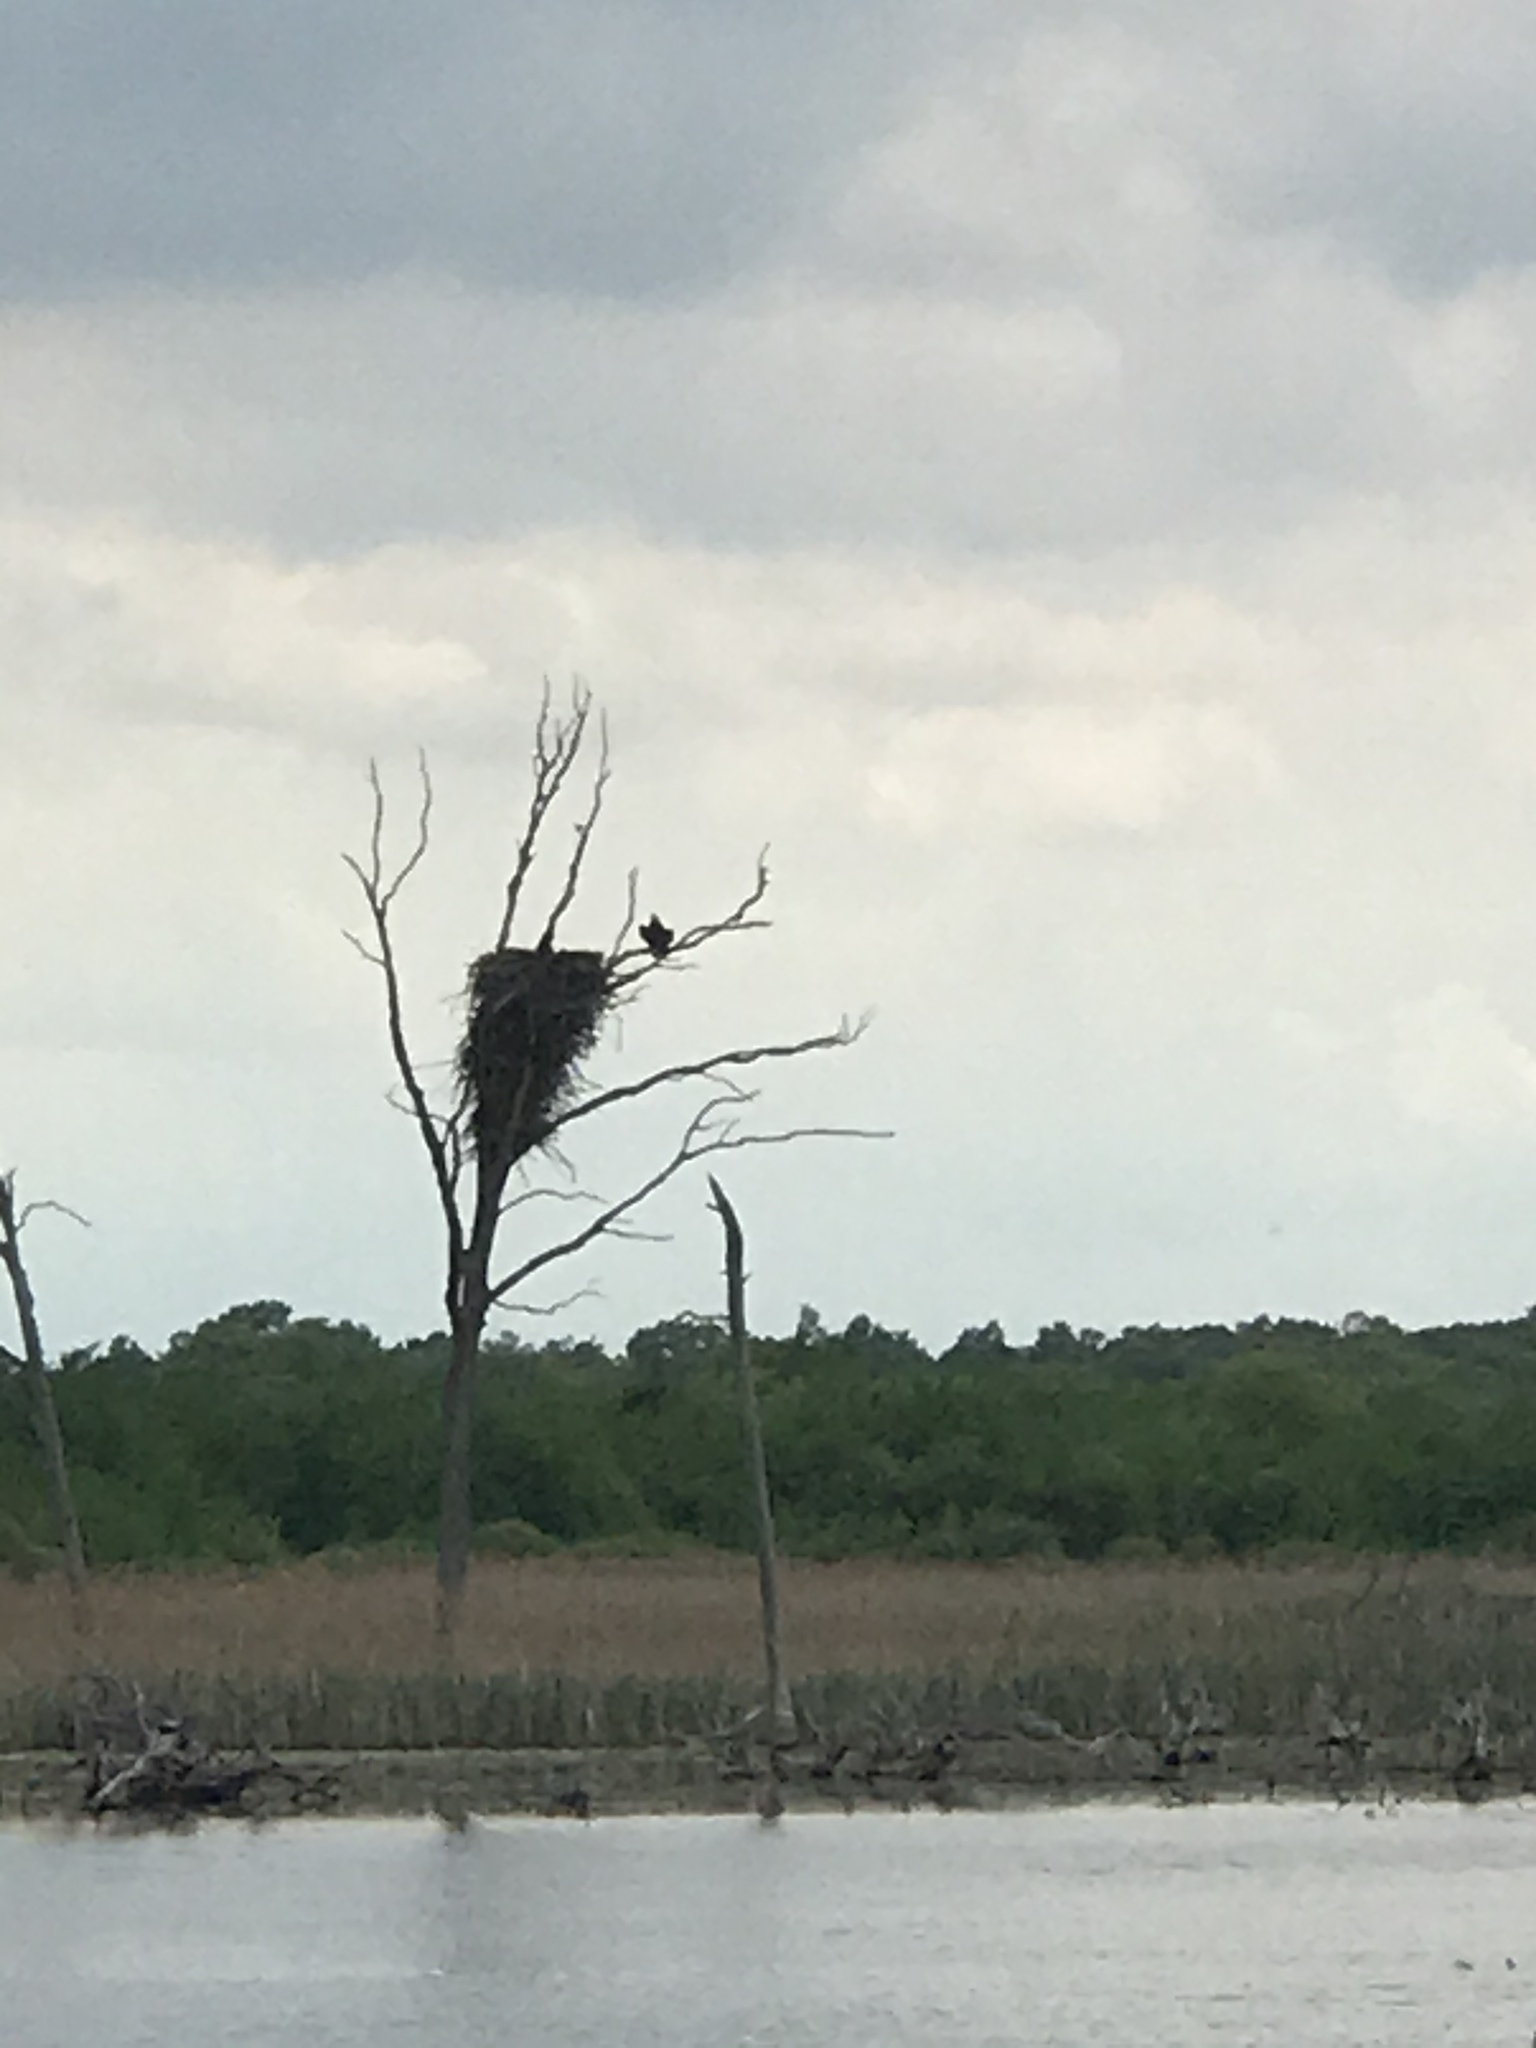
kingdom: Animalia
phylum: Chordata
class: Aves
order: Accipitriformes
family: Accipitridae
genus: Haliaeetus
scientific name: Haliaeetus leucocephalus
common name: Bald eagle
